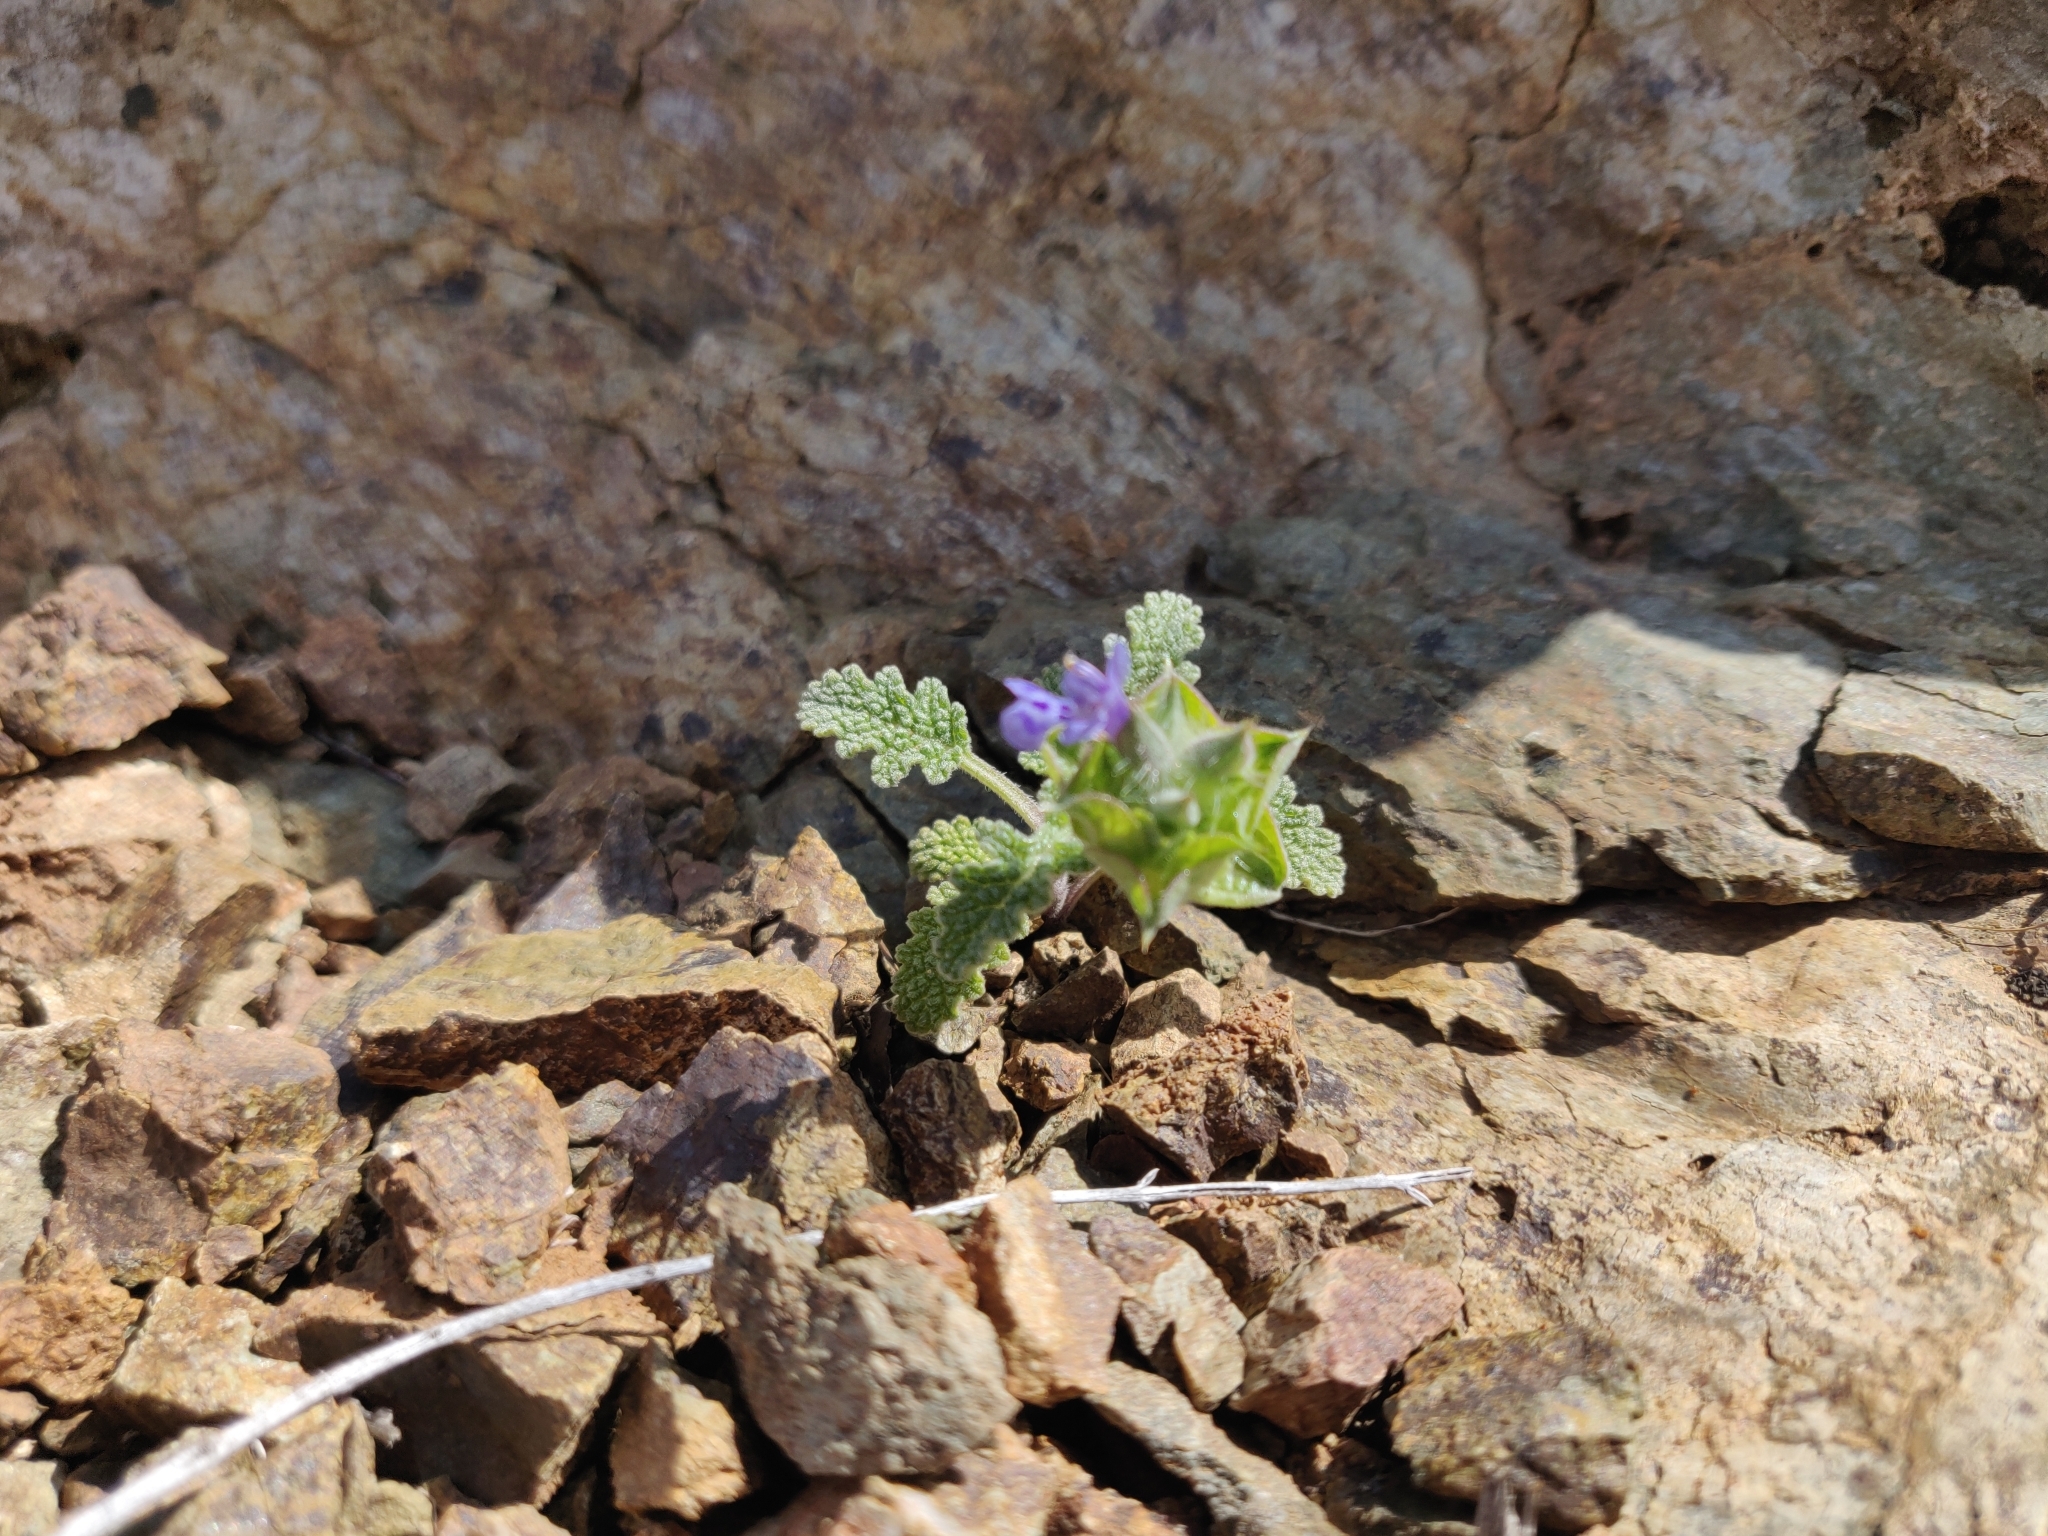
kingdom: Plantae
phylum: Tracheophyta
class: Magnoliopsida
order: Lamiales
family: Lamiaceae
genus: Salvia
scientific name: Salvia columbariae
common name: Chia
